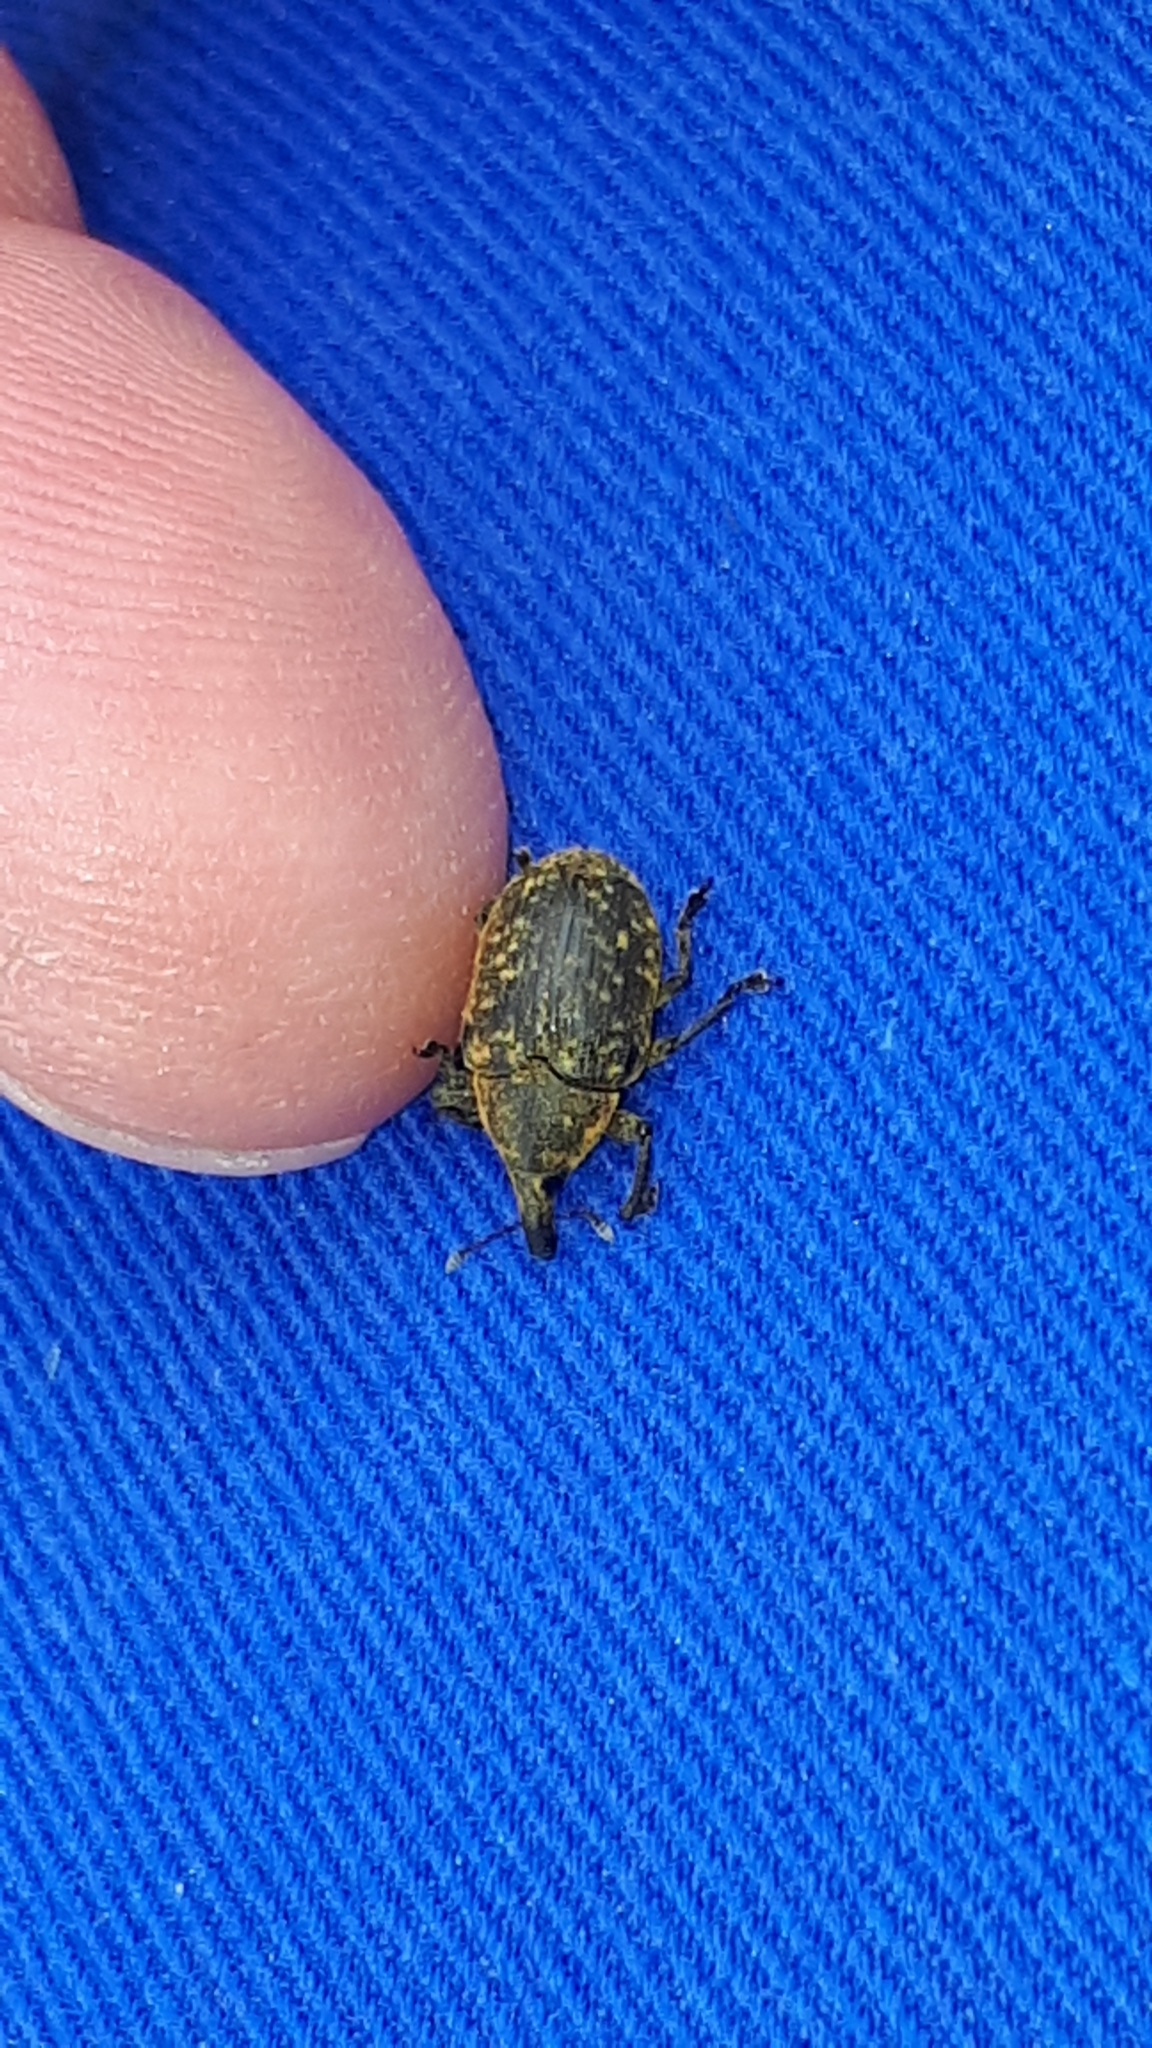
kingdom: Animalia
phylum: Arthropoda
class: Insecta
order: Coleoptera
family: Curculionidae
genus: Larinus
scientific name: Larinus turbinatus
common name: Weevil
